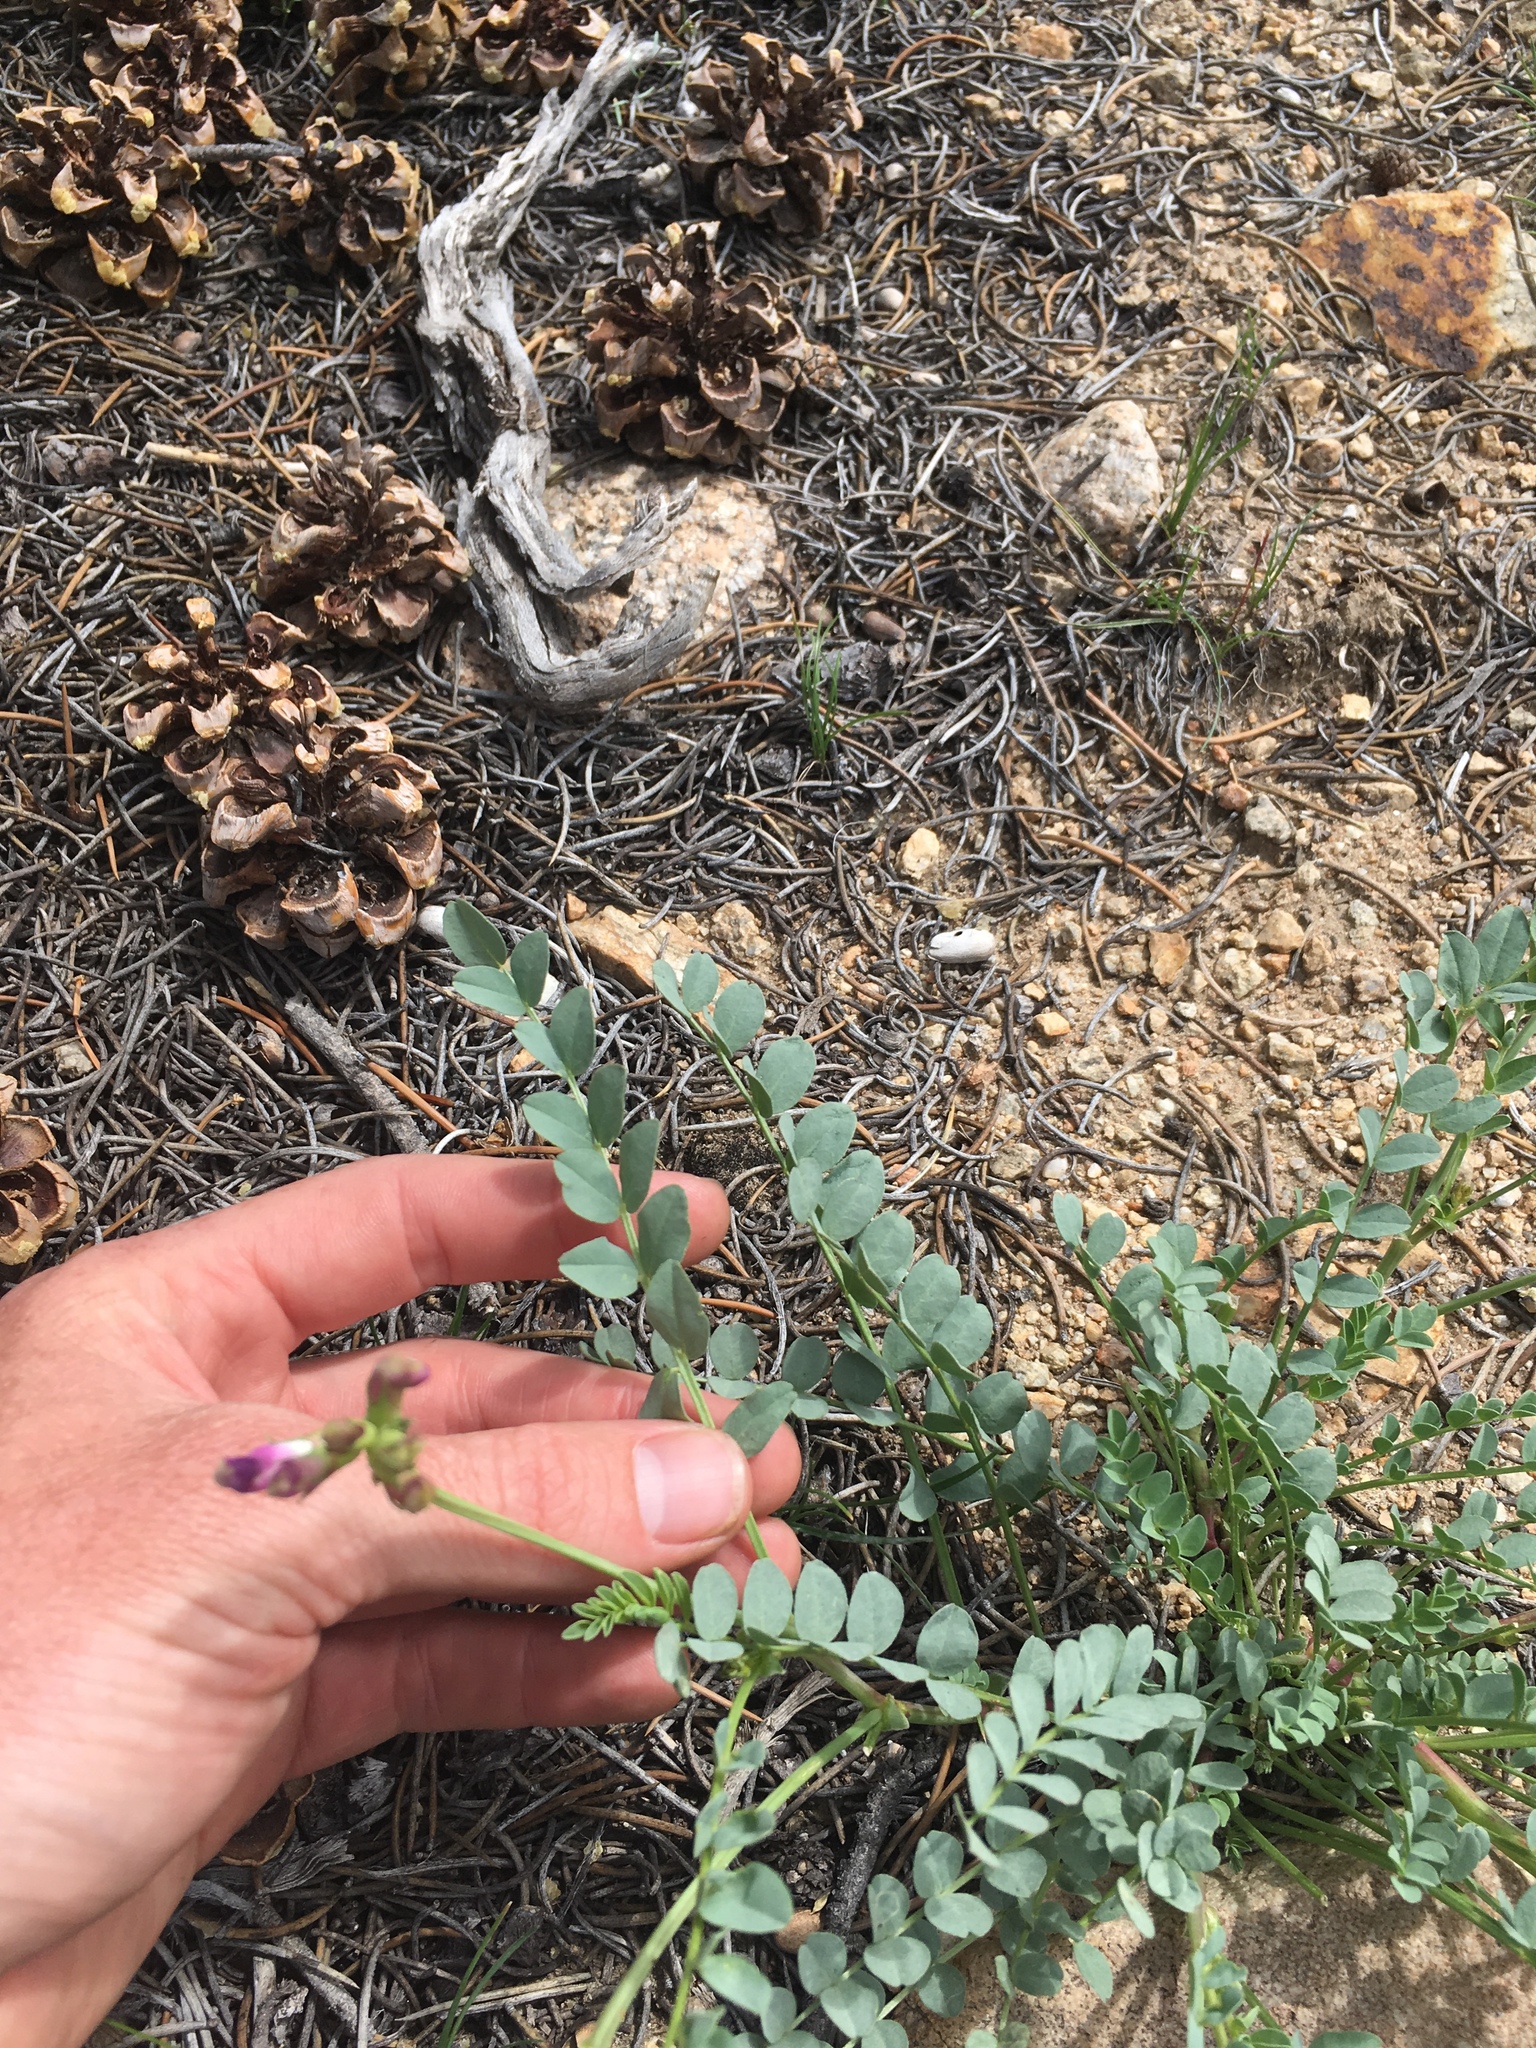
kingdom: Plantae
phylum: Tracheophyta
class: Magnoliopsida
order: Fabales
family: Fabaceae
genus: Astragalus
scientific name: Astragalus oophorus
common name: Egg milkvetch
